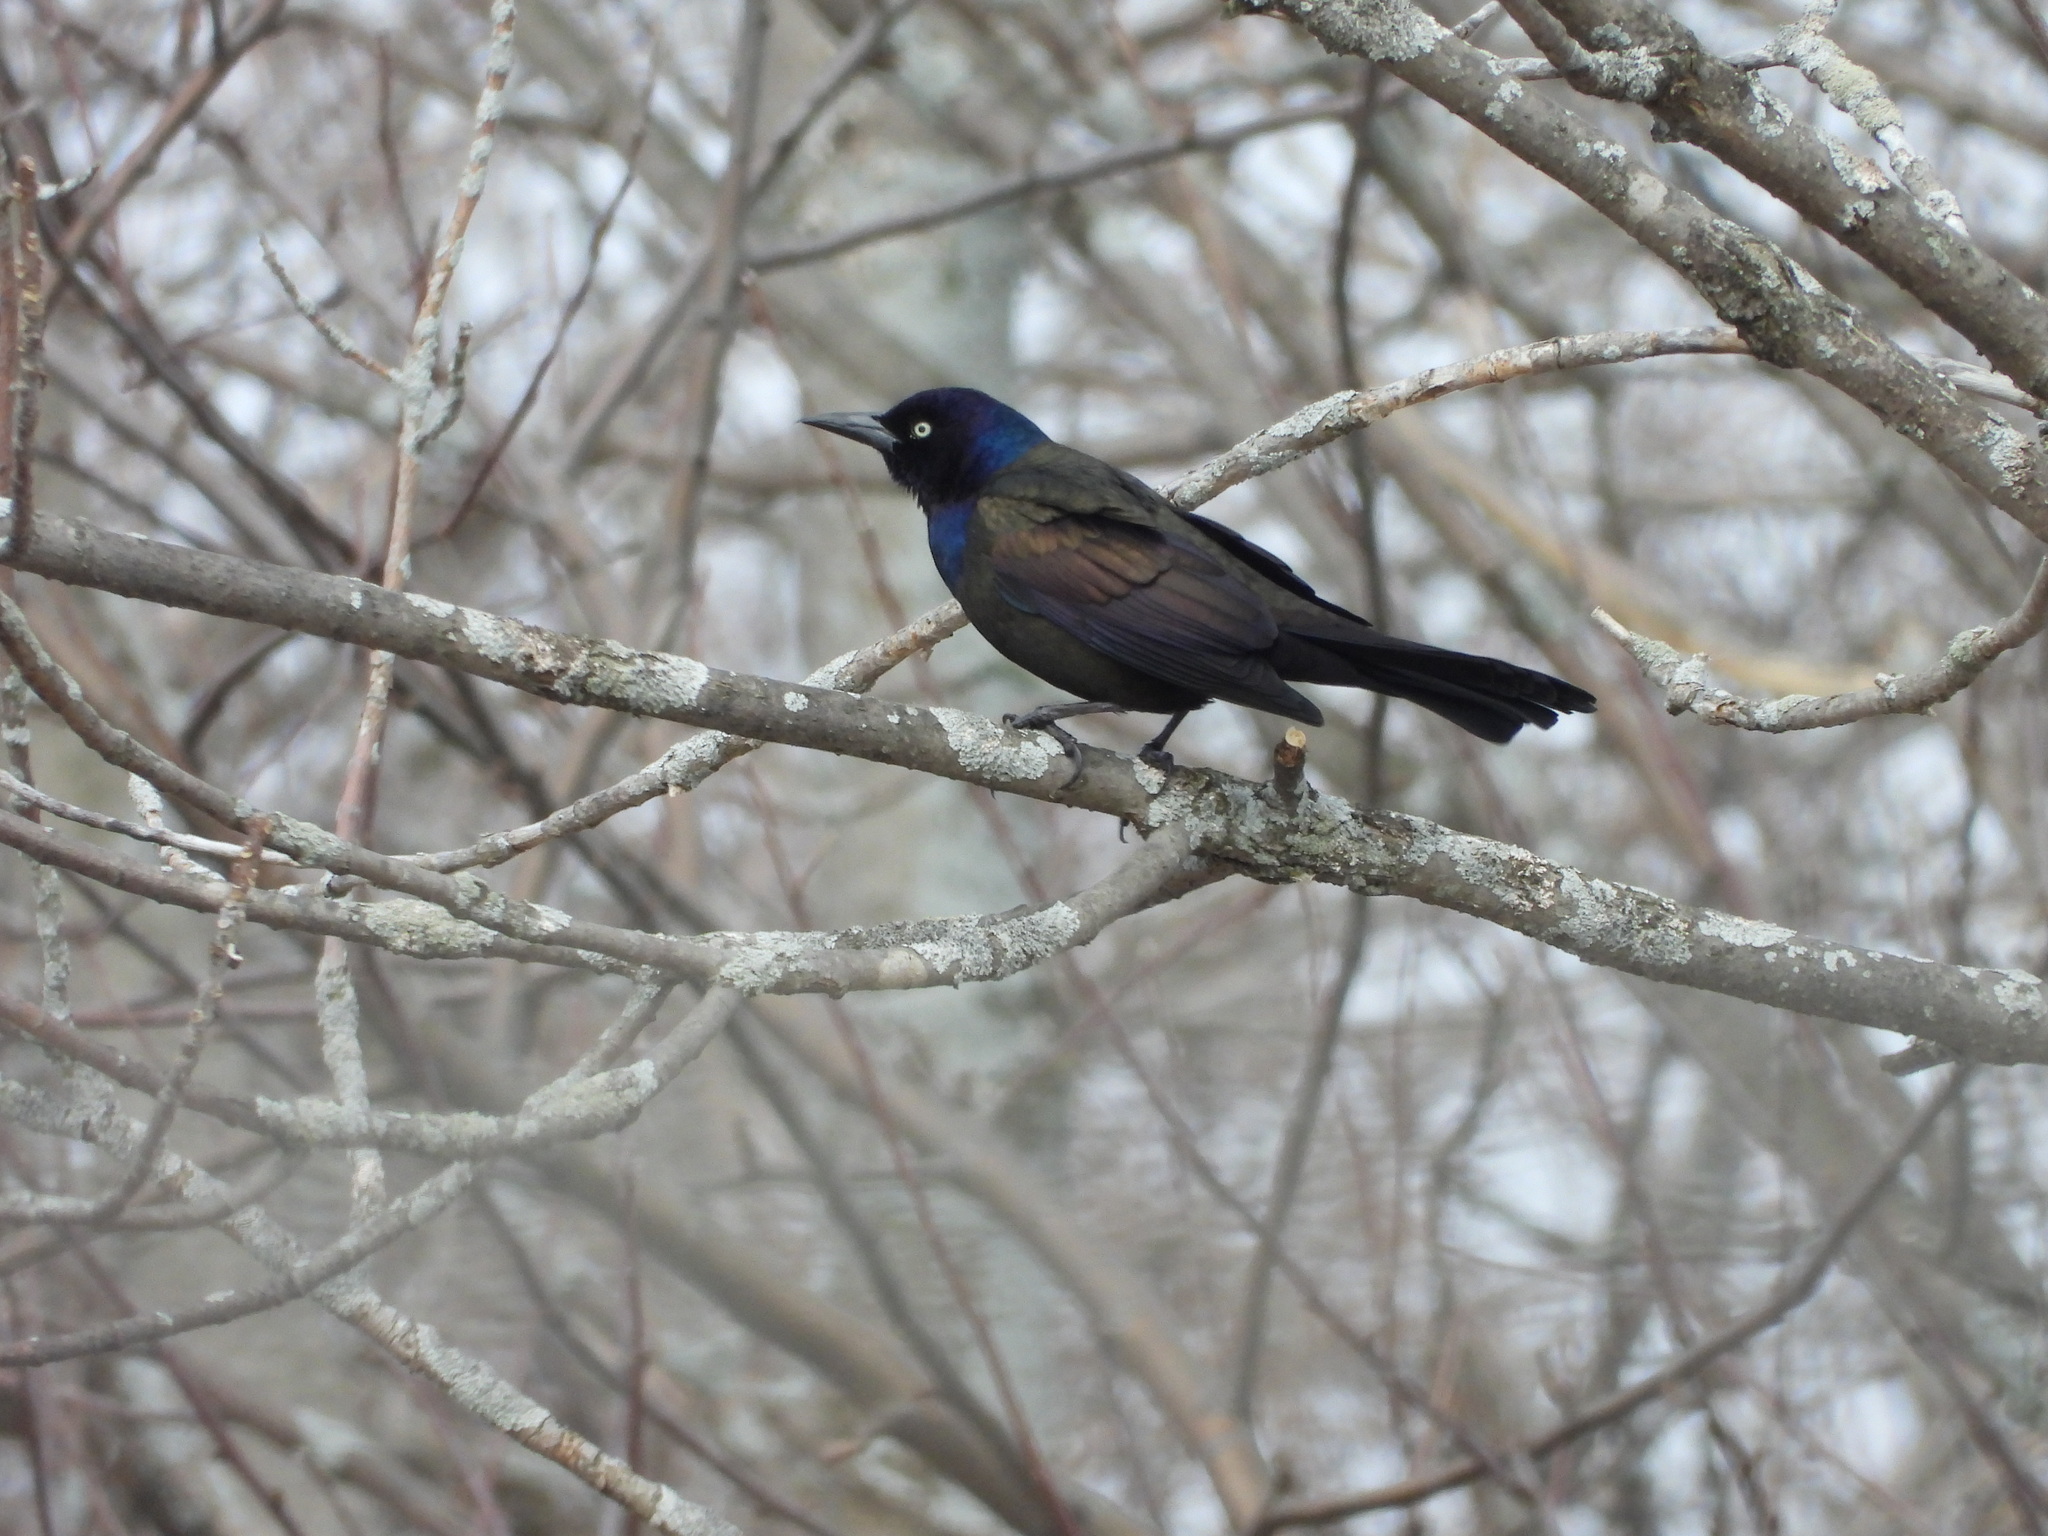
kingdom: Animalia
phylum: Chordata
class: Aves
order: Passeriformes
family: Icteridae
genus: Quiscalus
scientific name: Quiscalus quiscula
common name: Common grackle
